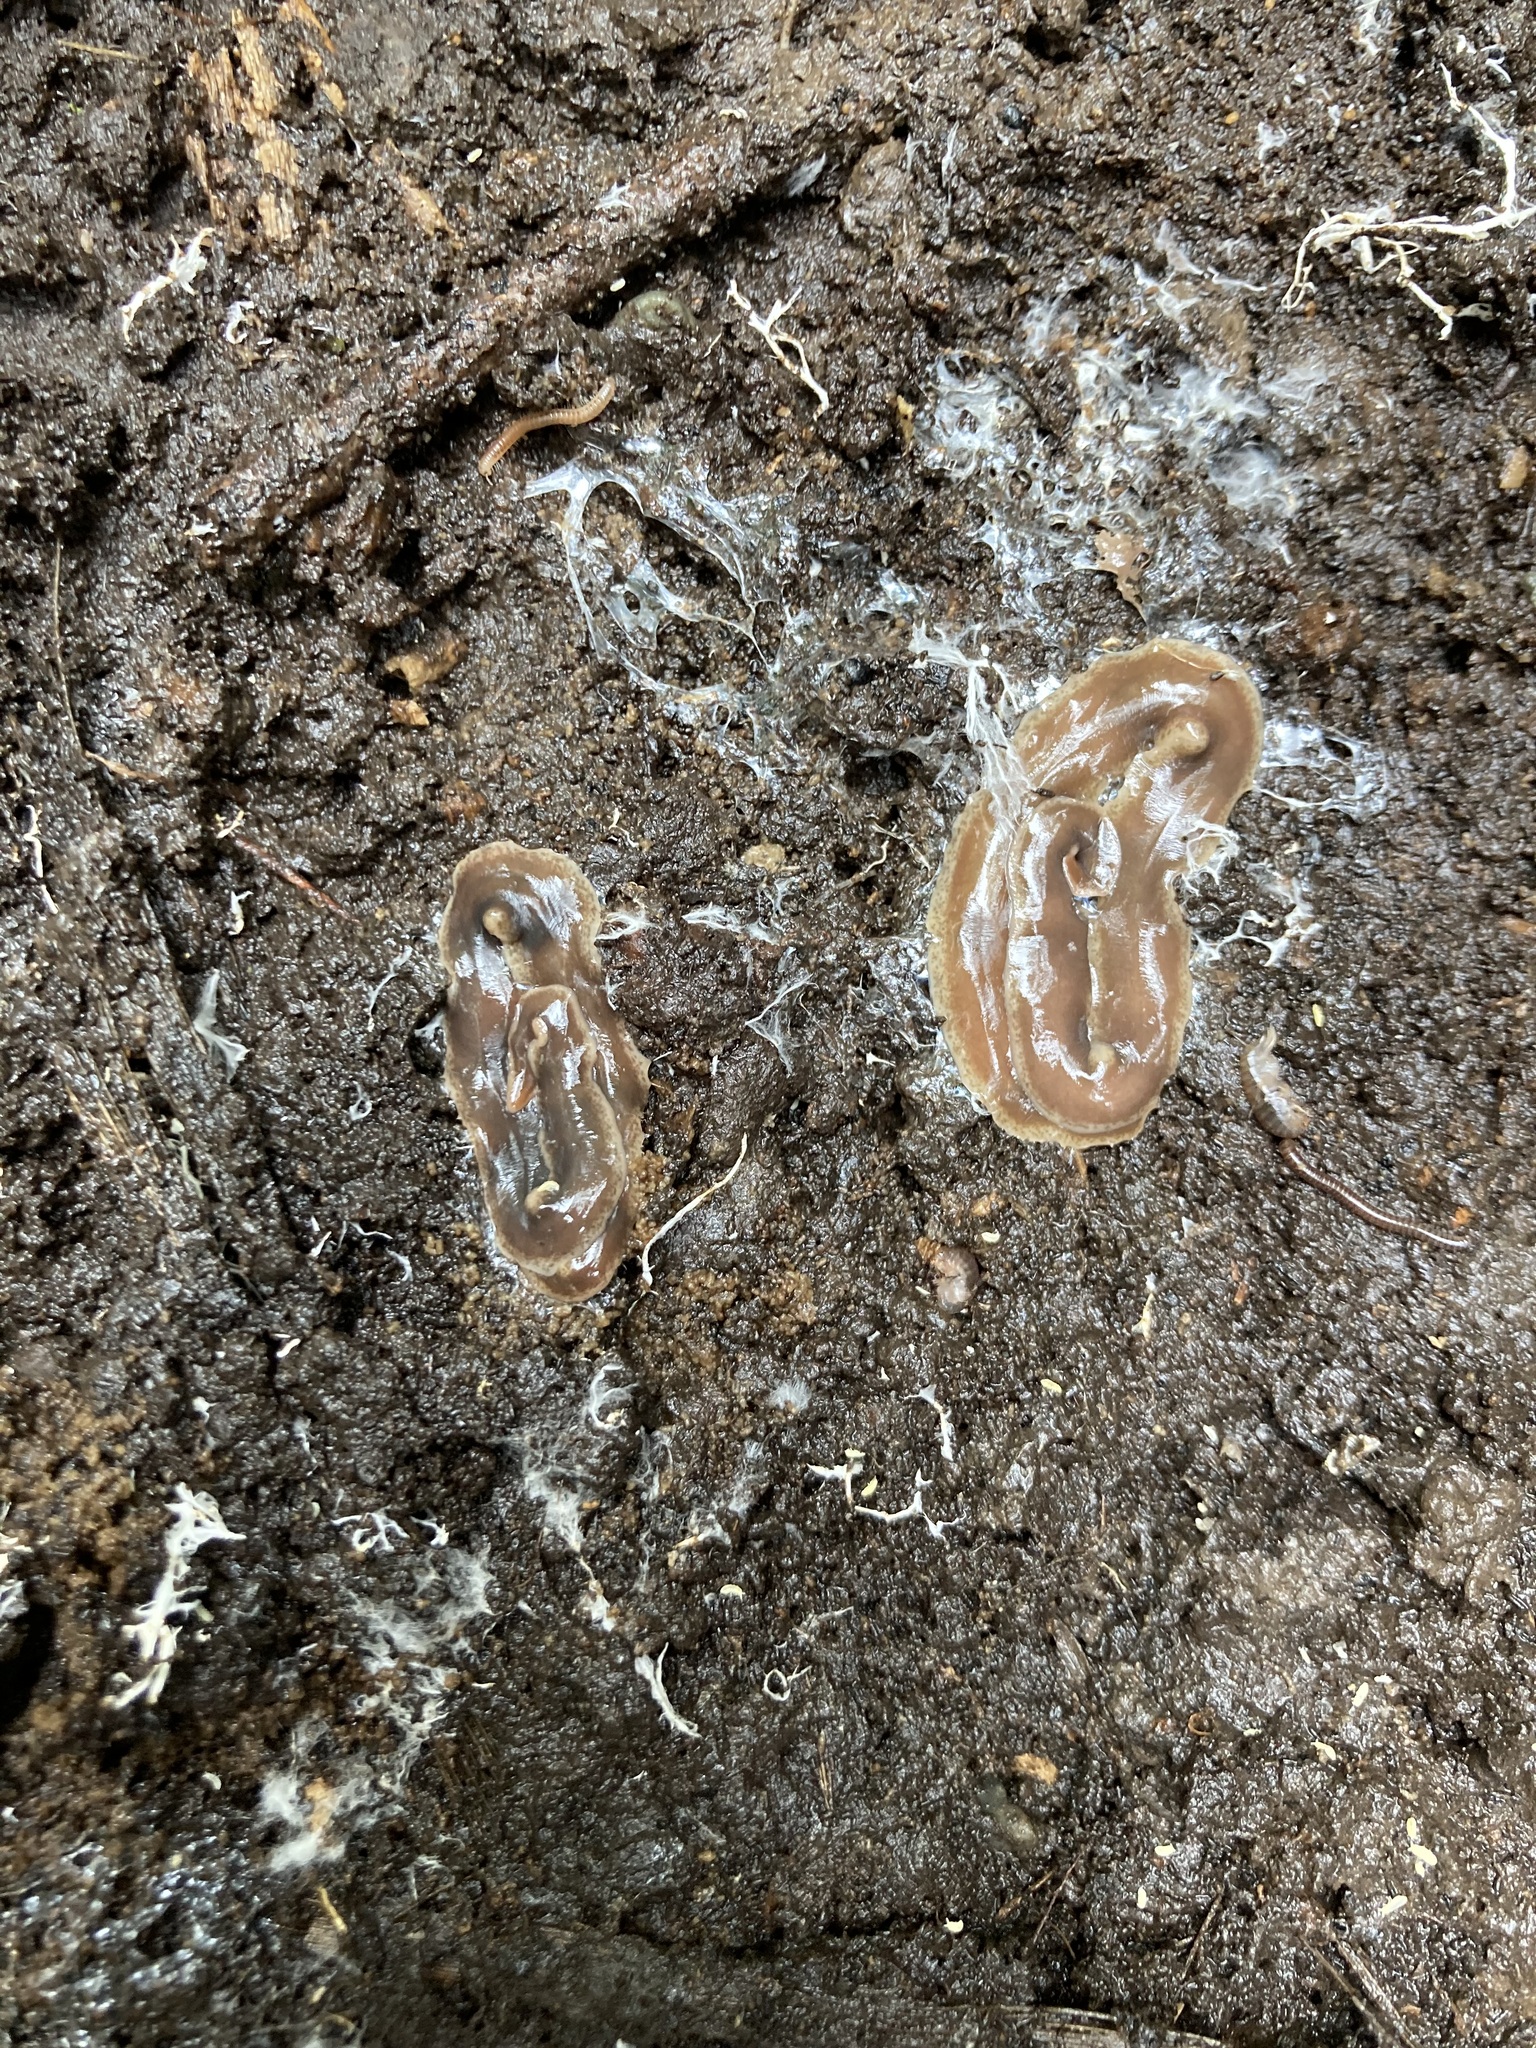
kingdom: Animalia
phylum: Platyhelminthes
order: Tricladida
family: Geoplanidae
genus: Arthurdendyus
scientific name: Arthurdendyus triangulatus
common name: New zealand flatworm
